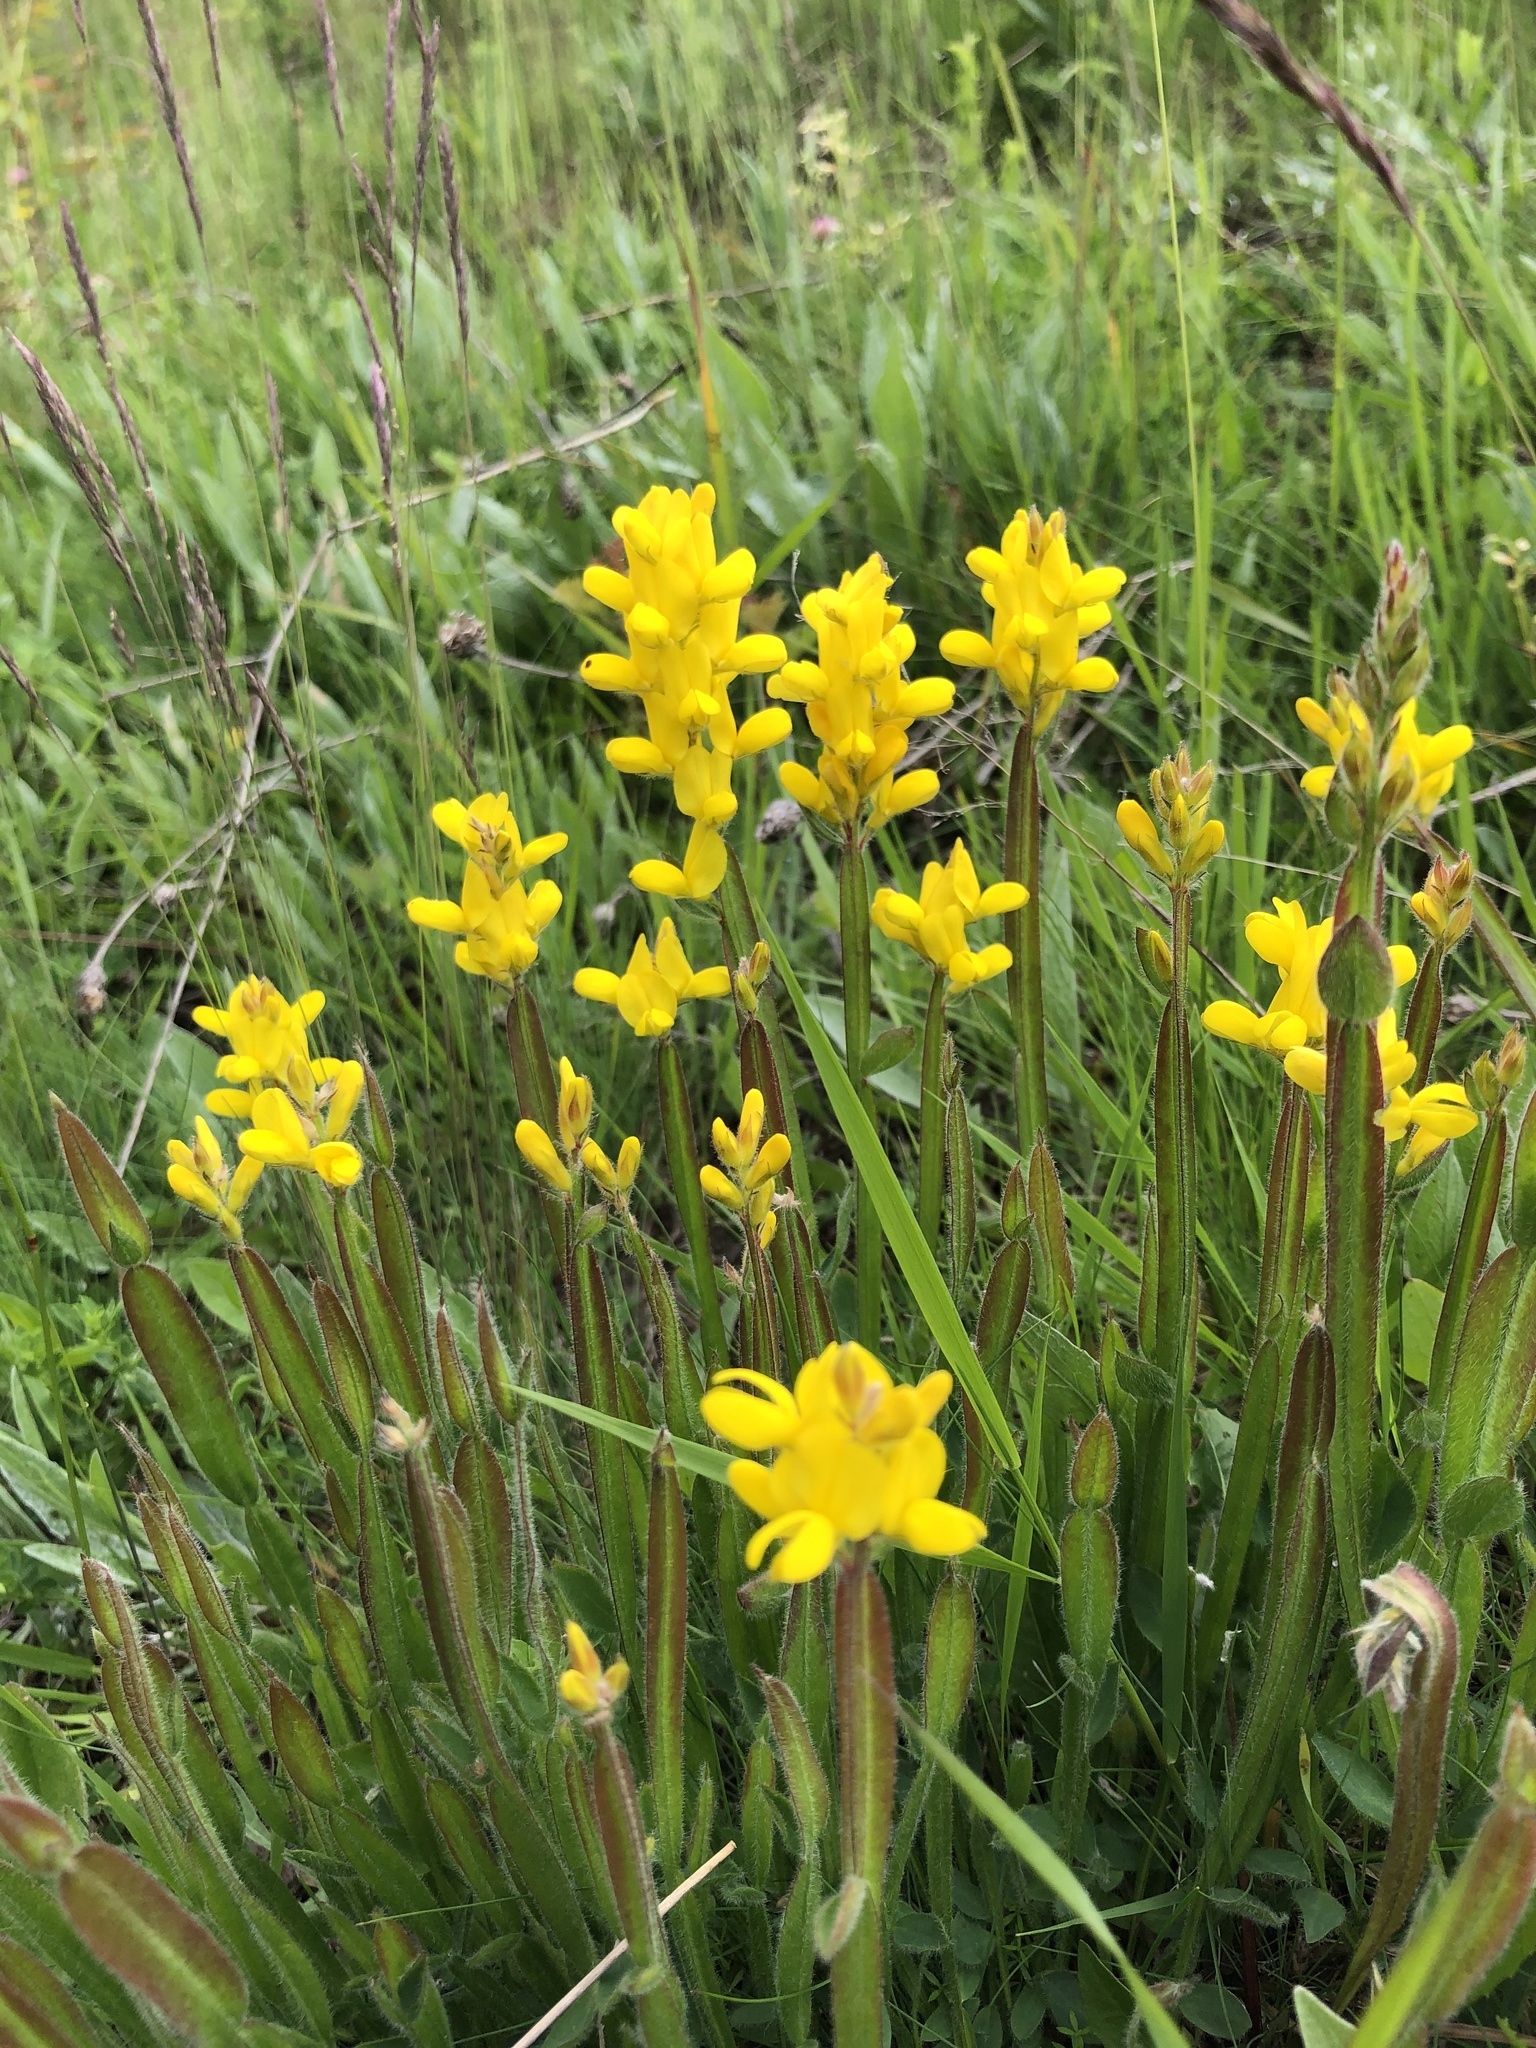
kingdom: Plantae
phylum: Tracheophyta
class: Magnoliopsida
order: Fabales
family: Fabaceae
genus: Genista
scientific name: Genista sagittalis
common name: Winged greenweed
